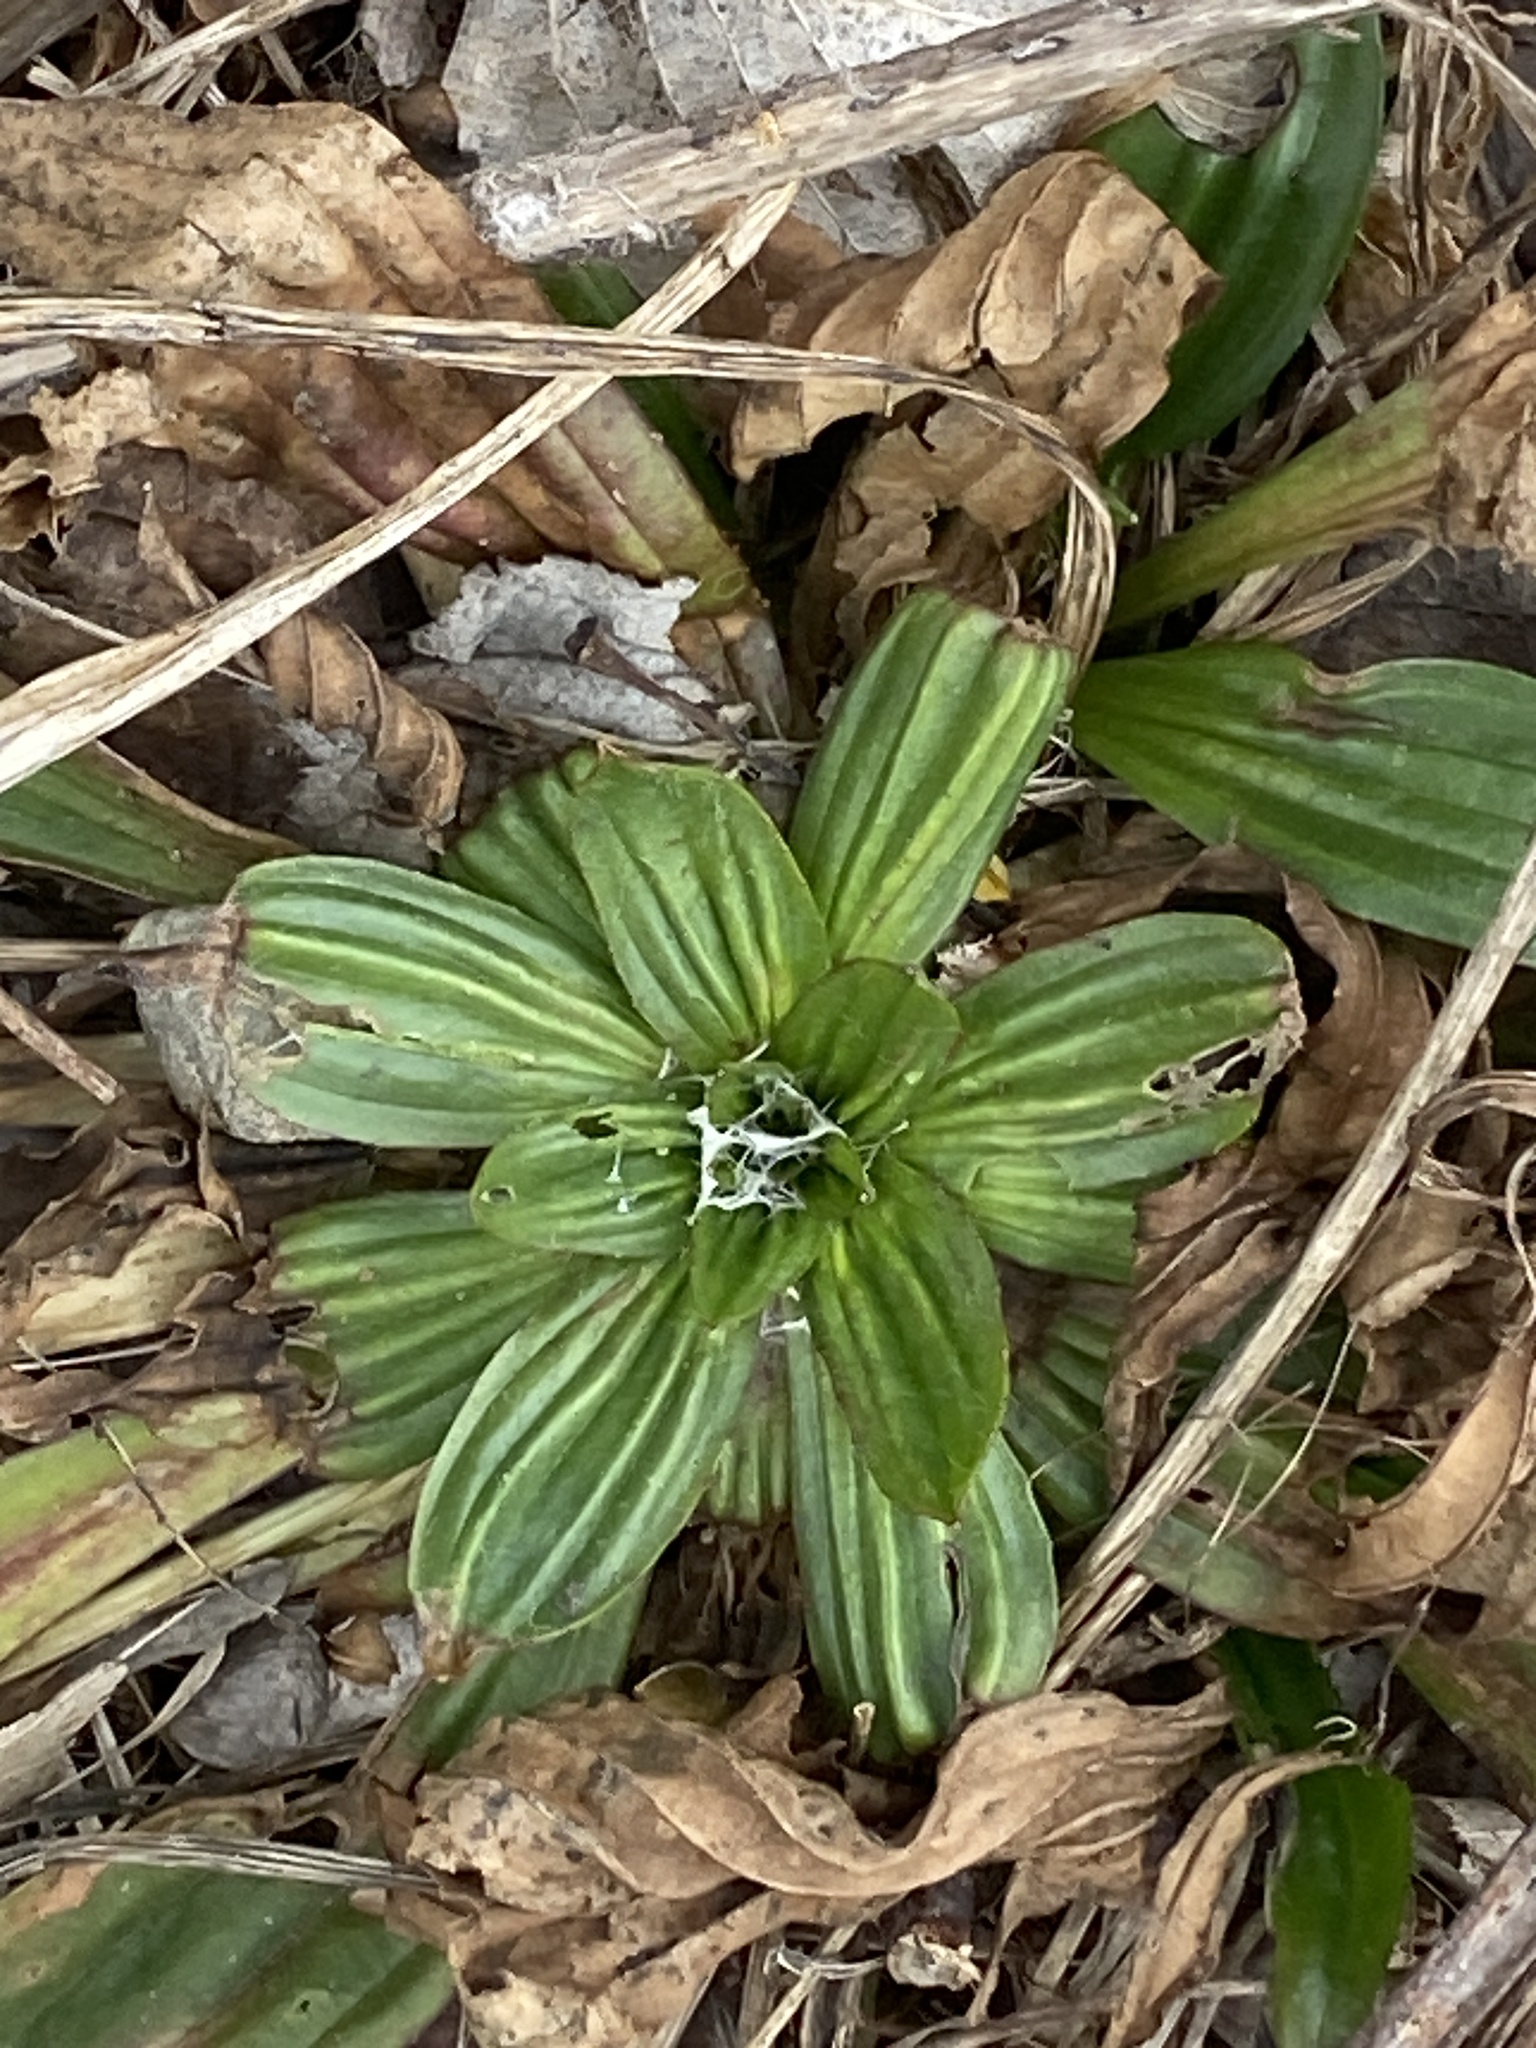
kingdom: Plantae
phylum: Tracheophyta
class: Magnoliopsida
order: Lamiales
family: Plantaginaceae
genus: Plantago
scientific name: Plantago lanceolata
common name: Ribwort plantain
